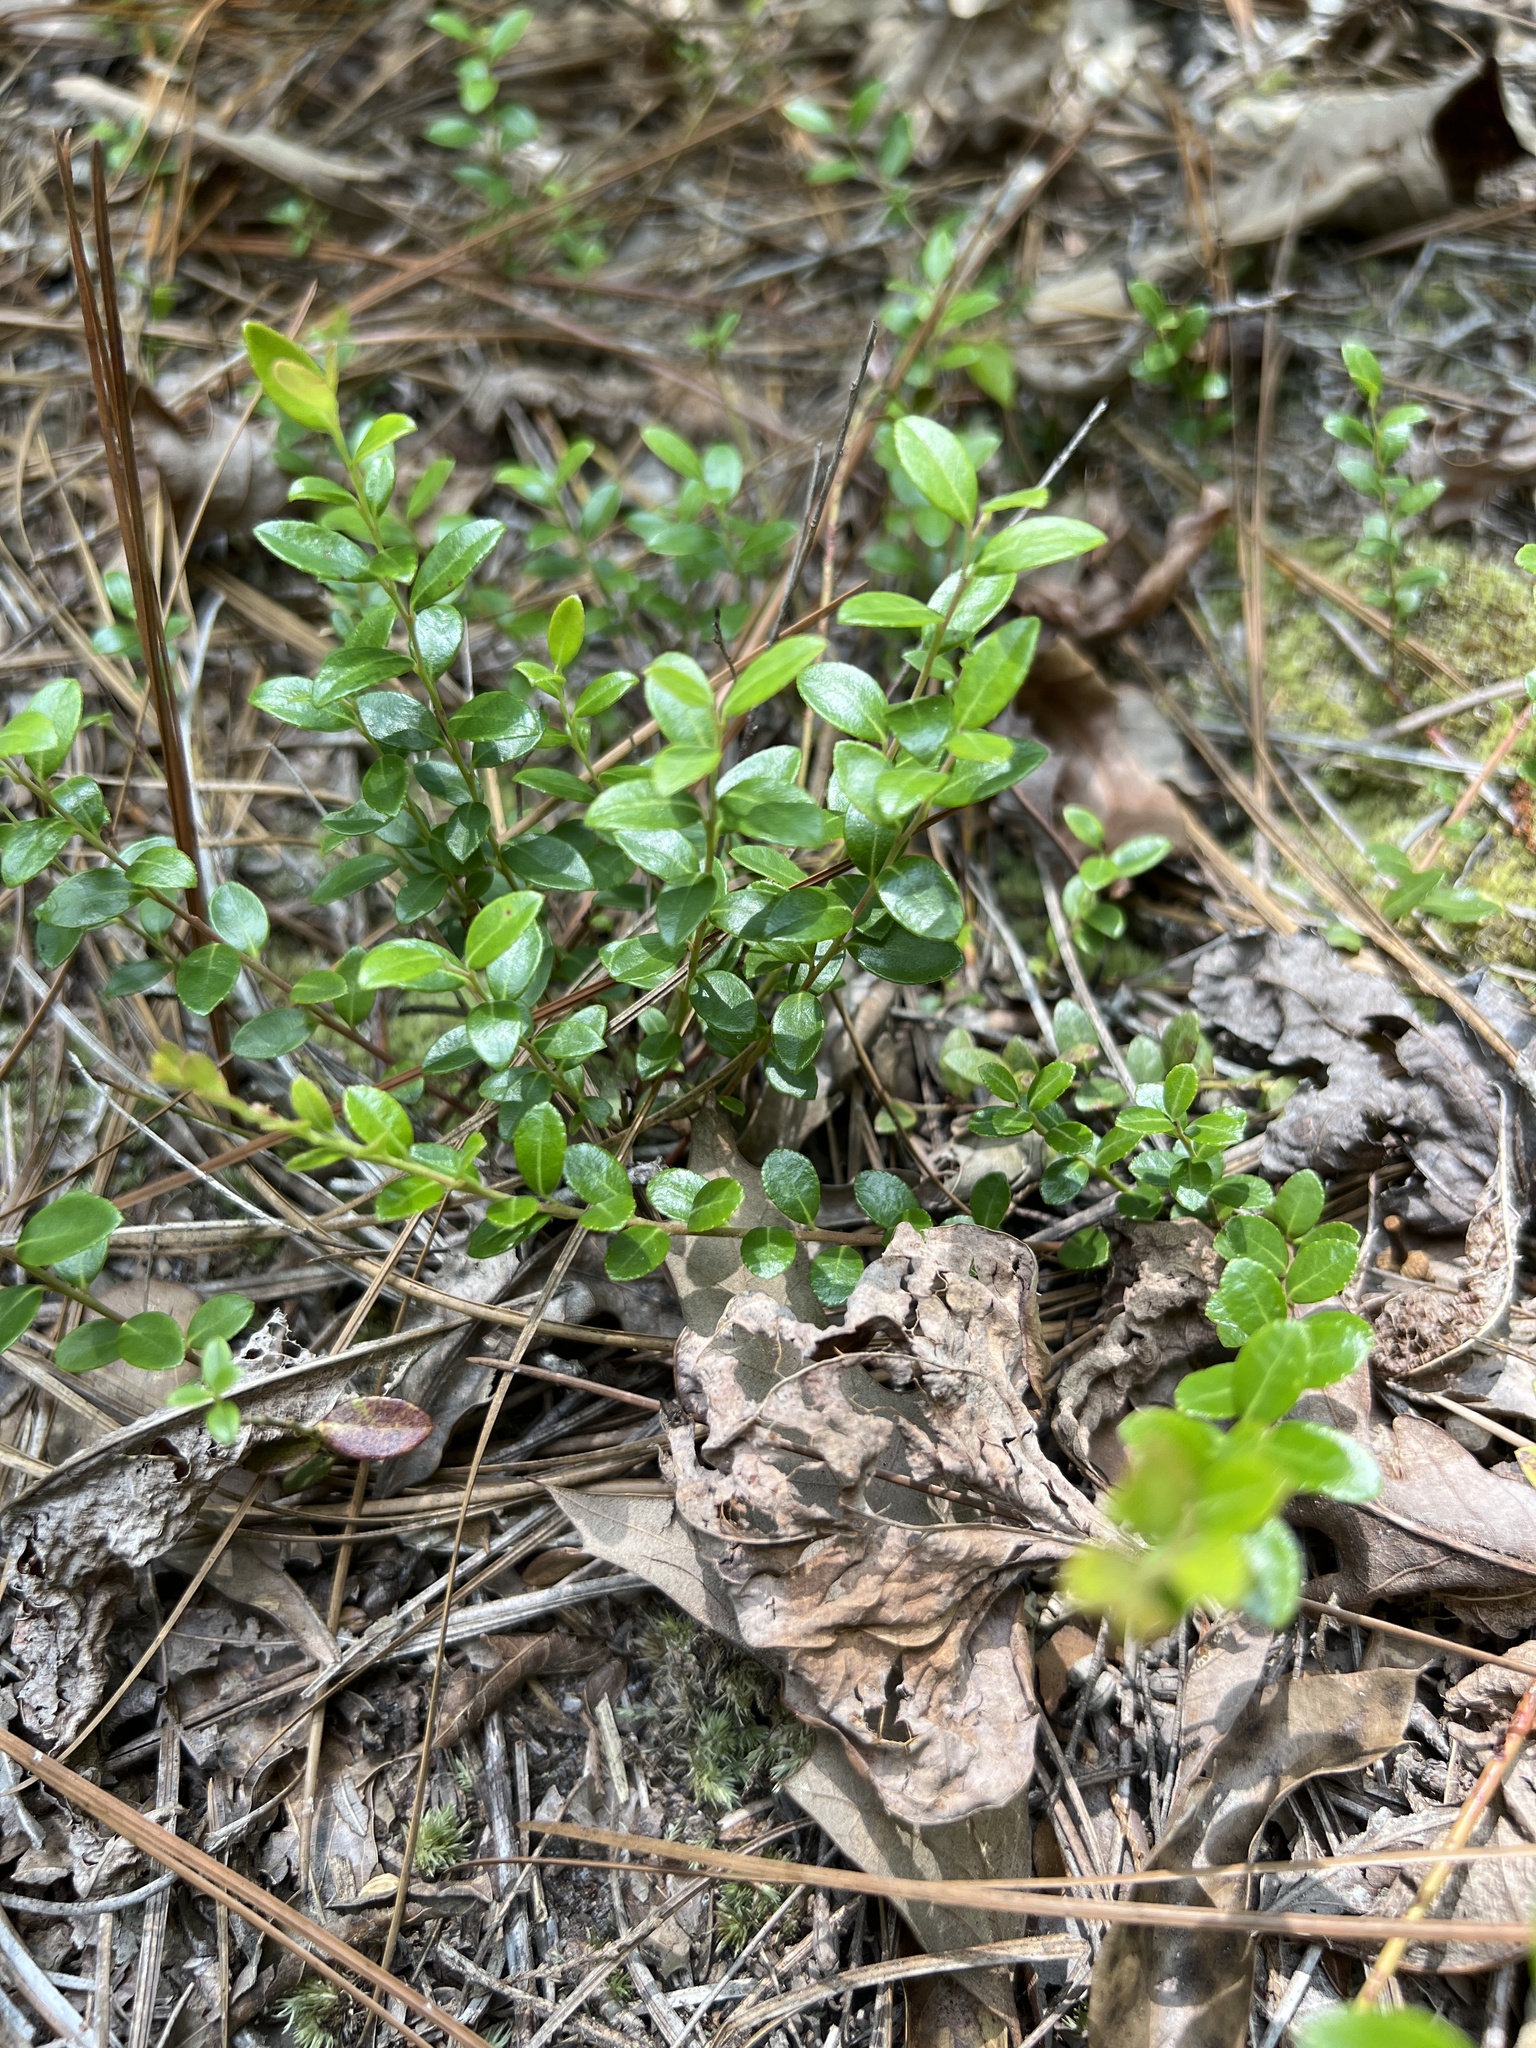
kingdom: Plantae
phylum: Tracheophyta
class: Magnoliopsida
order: Ericales
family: Ericaceae
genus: Vaccinium
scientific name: Vaccinium crassifolium
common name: Creeping blueberry
